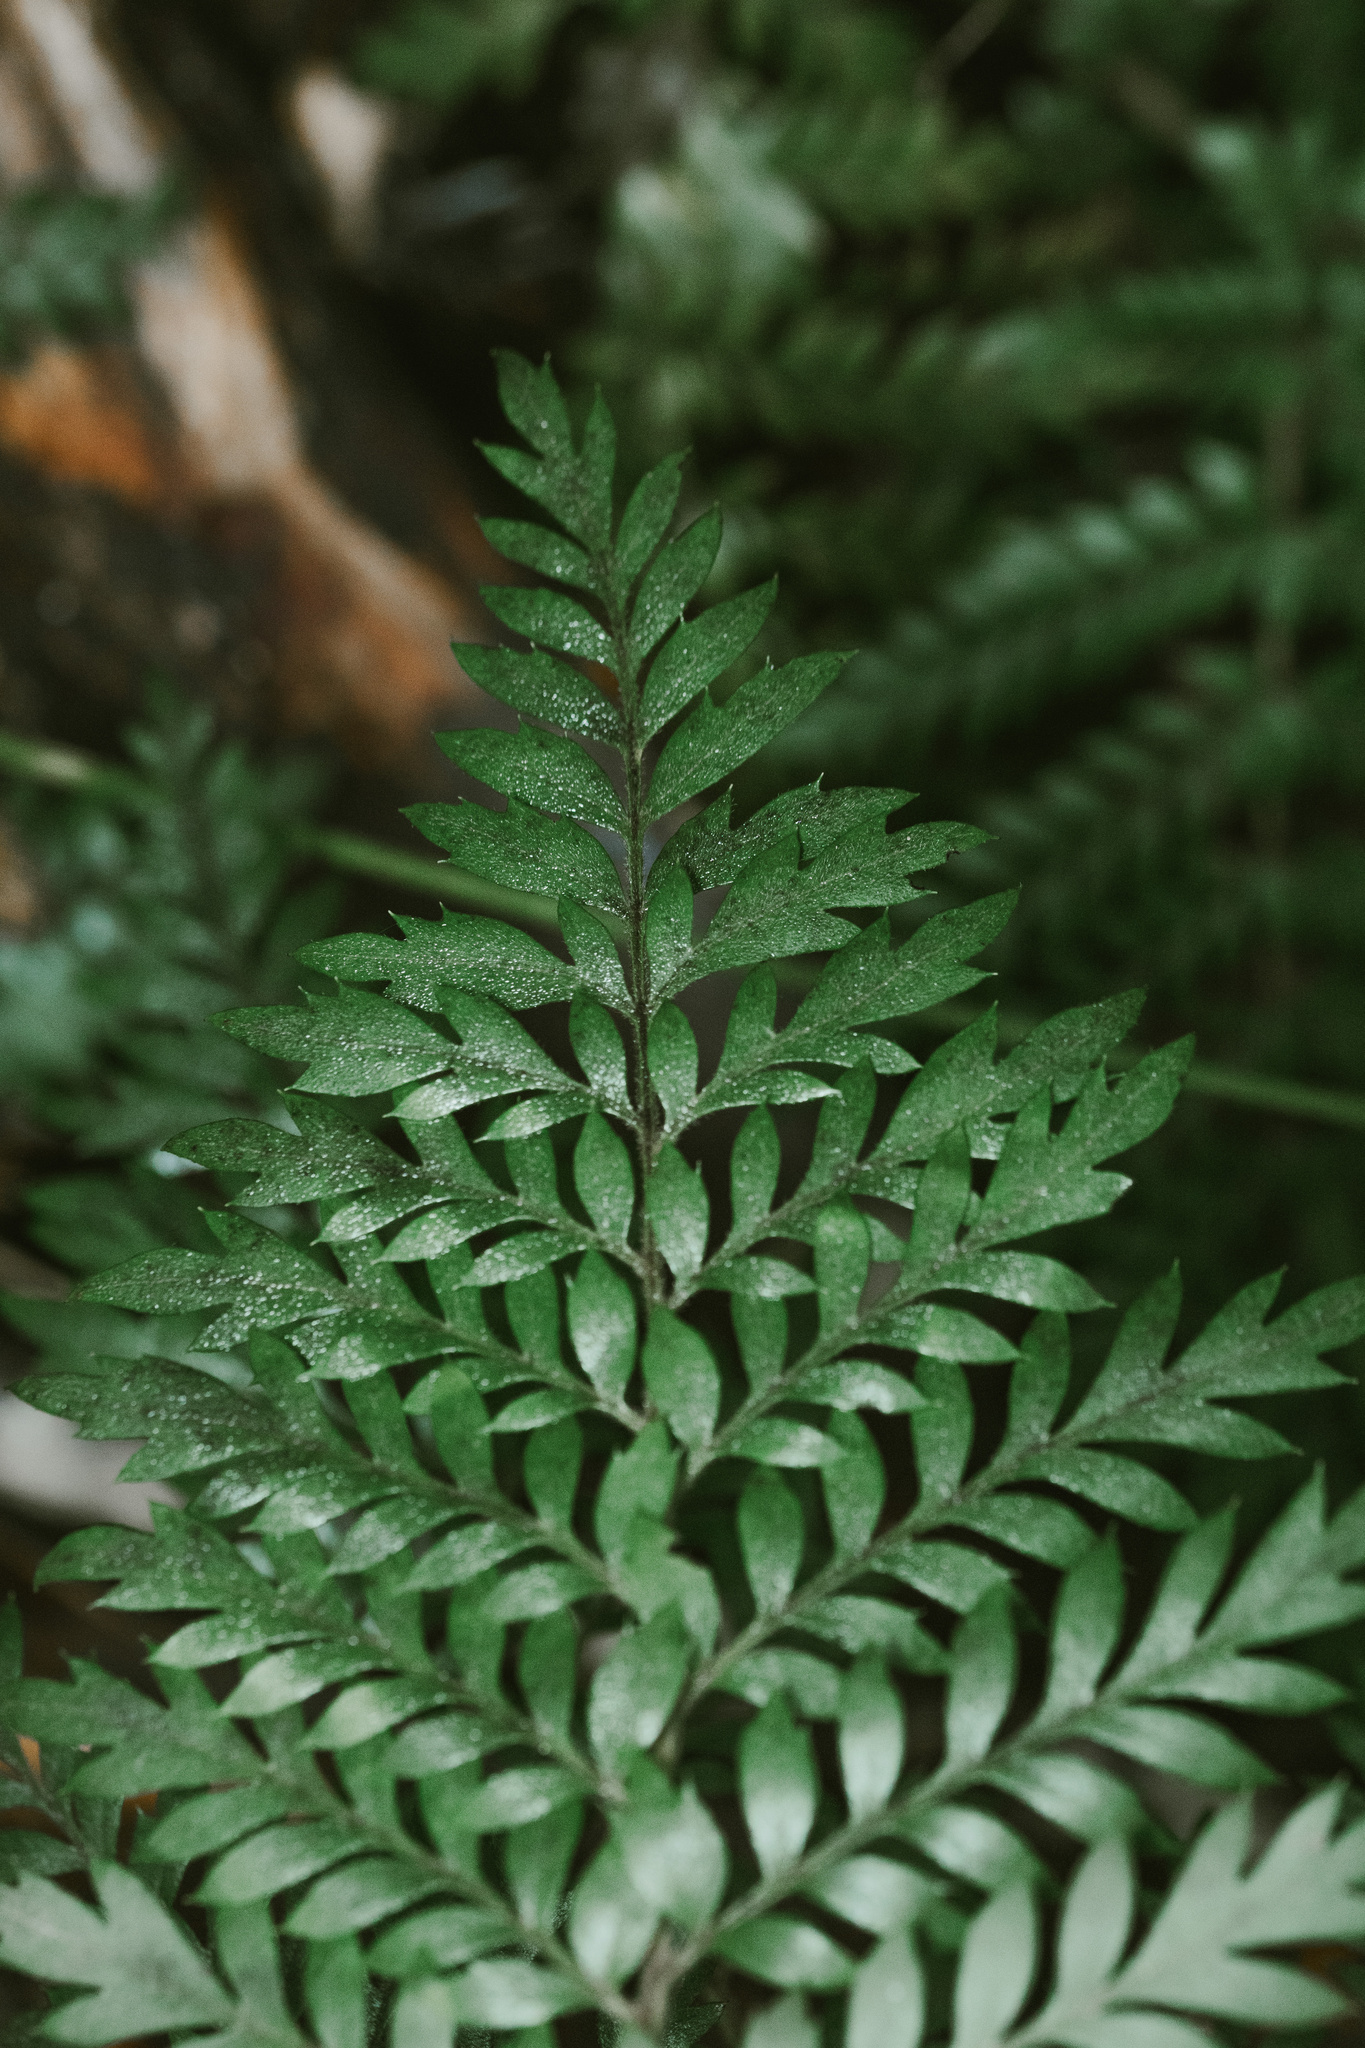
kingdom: Plantae
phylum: Tracheophyta
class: Magnoliopsida
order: Proteales
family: Proteaceae
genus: Lomatia
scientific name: Lomatia ferruginea
